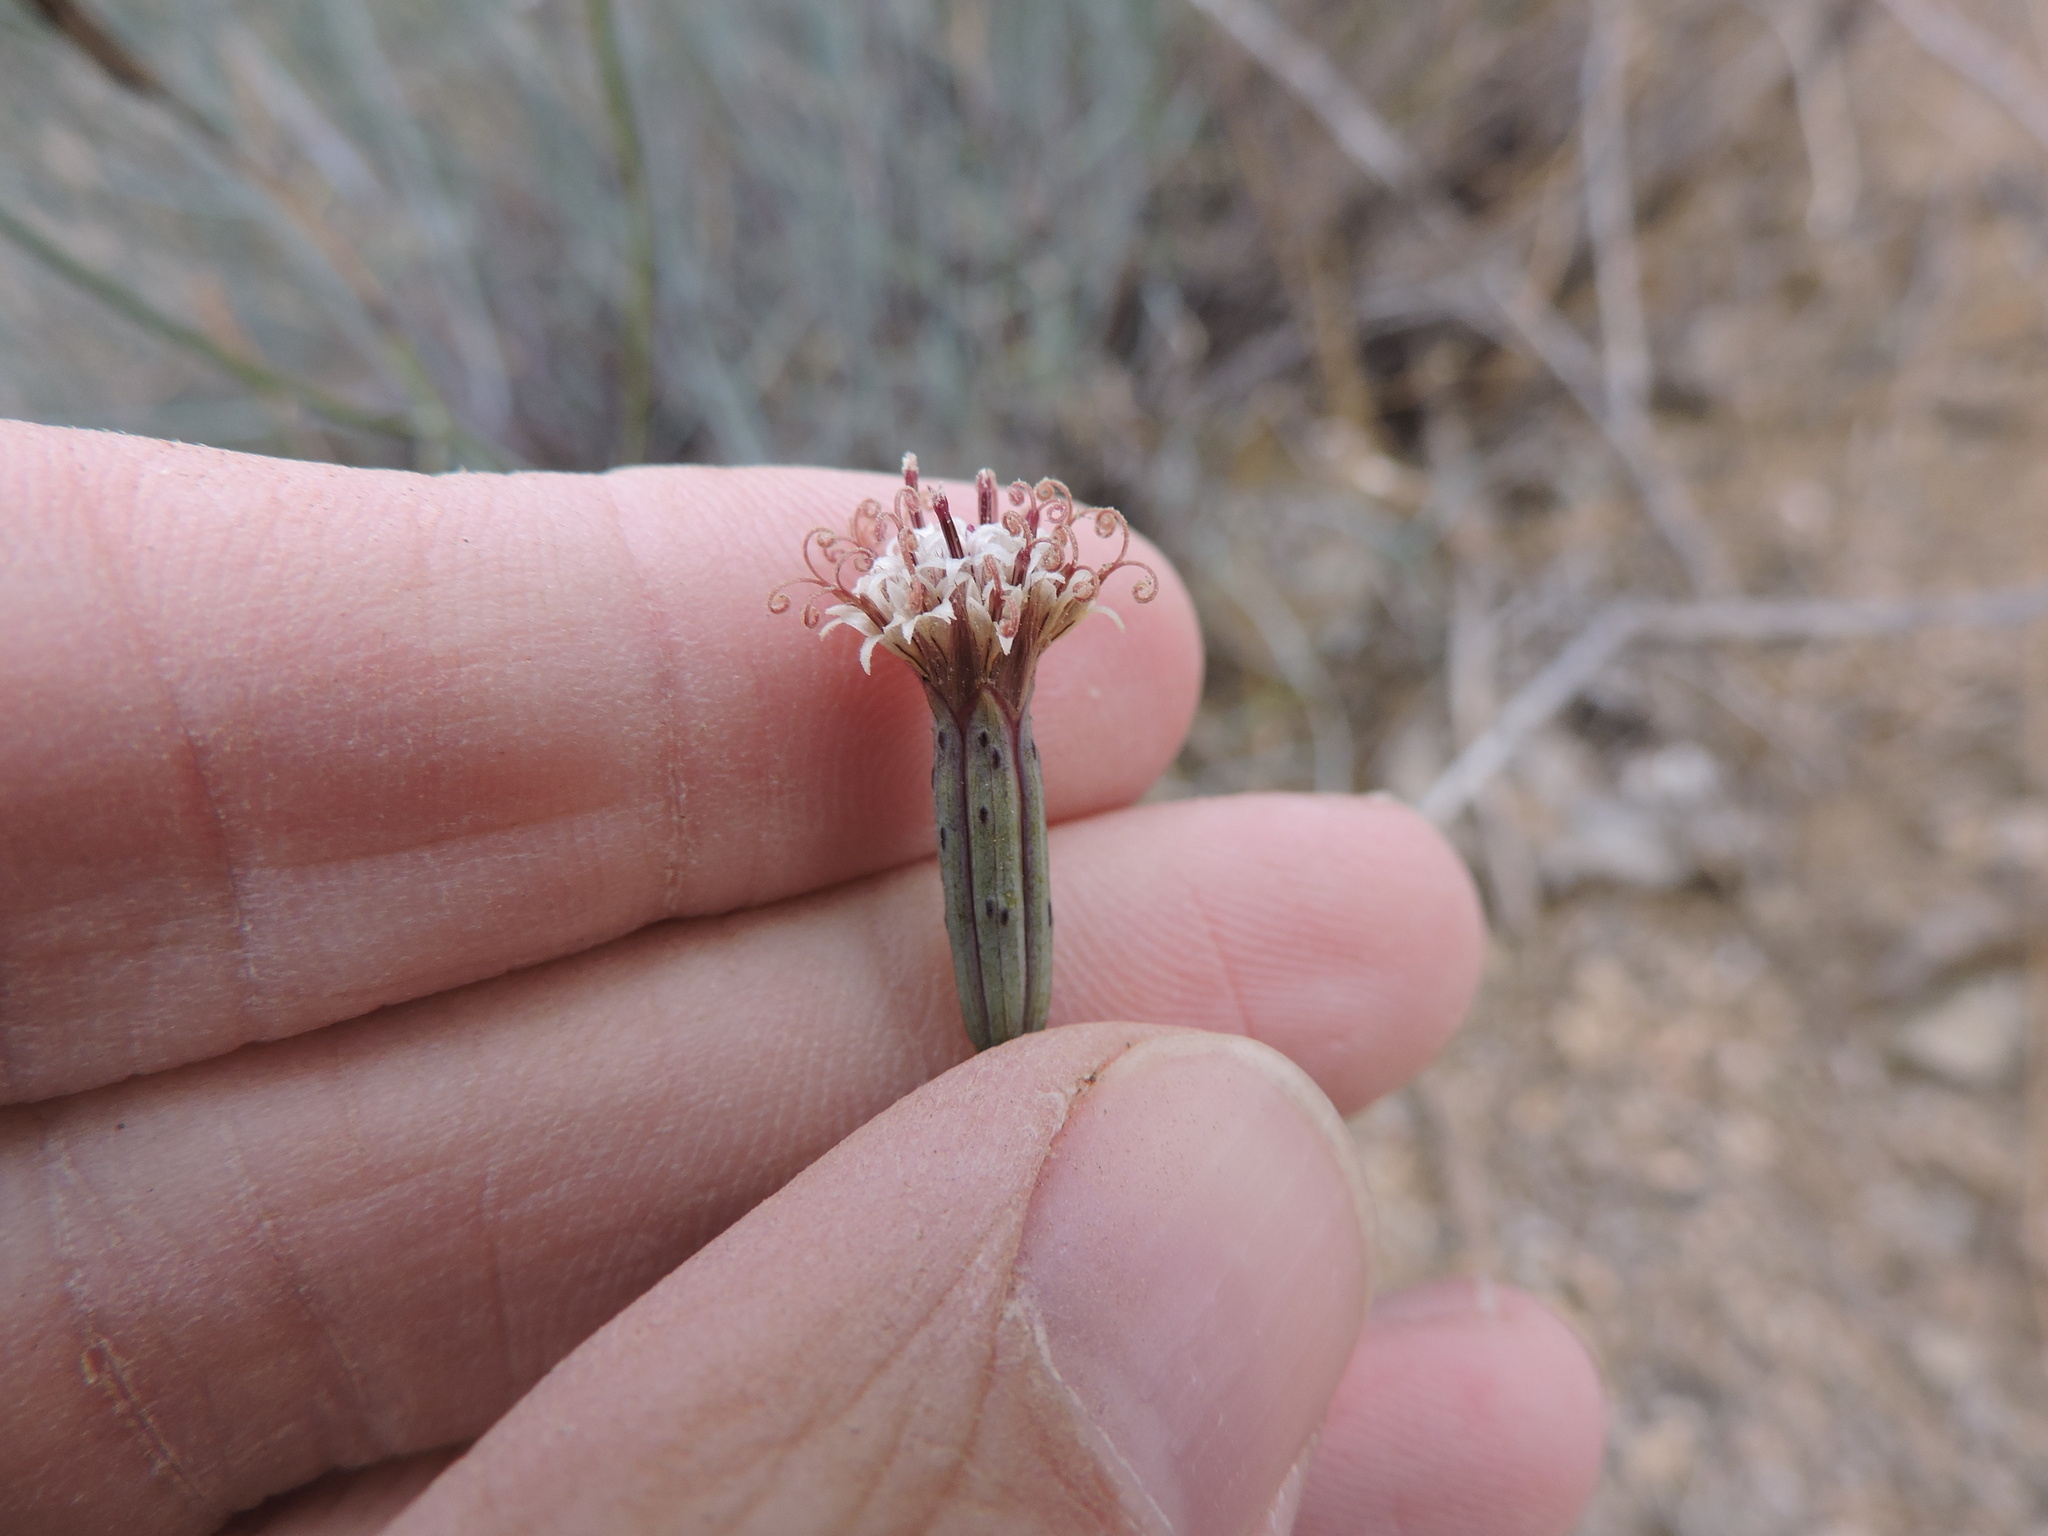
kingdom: Plantae
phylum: Tracheophyta
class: Magnoliopsida
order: Asterales
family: Asteraceae
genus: Porophyllum
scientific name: Porophyllum gracile
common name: Odora
